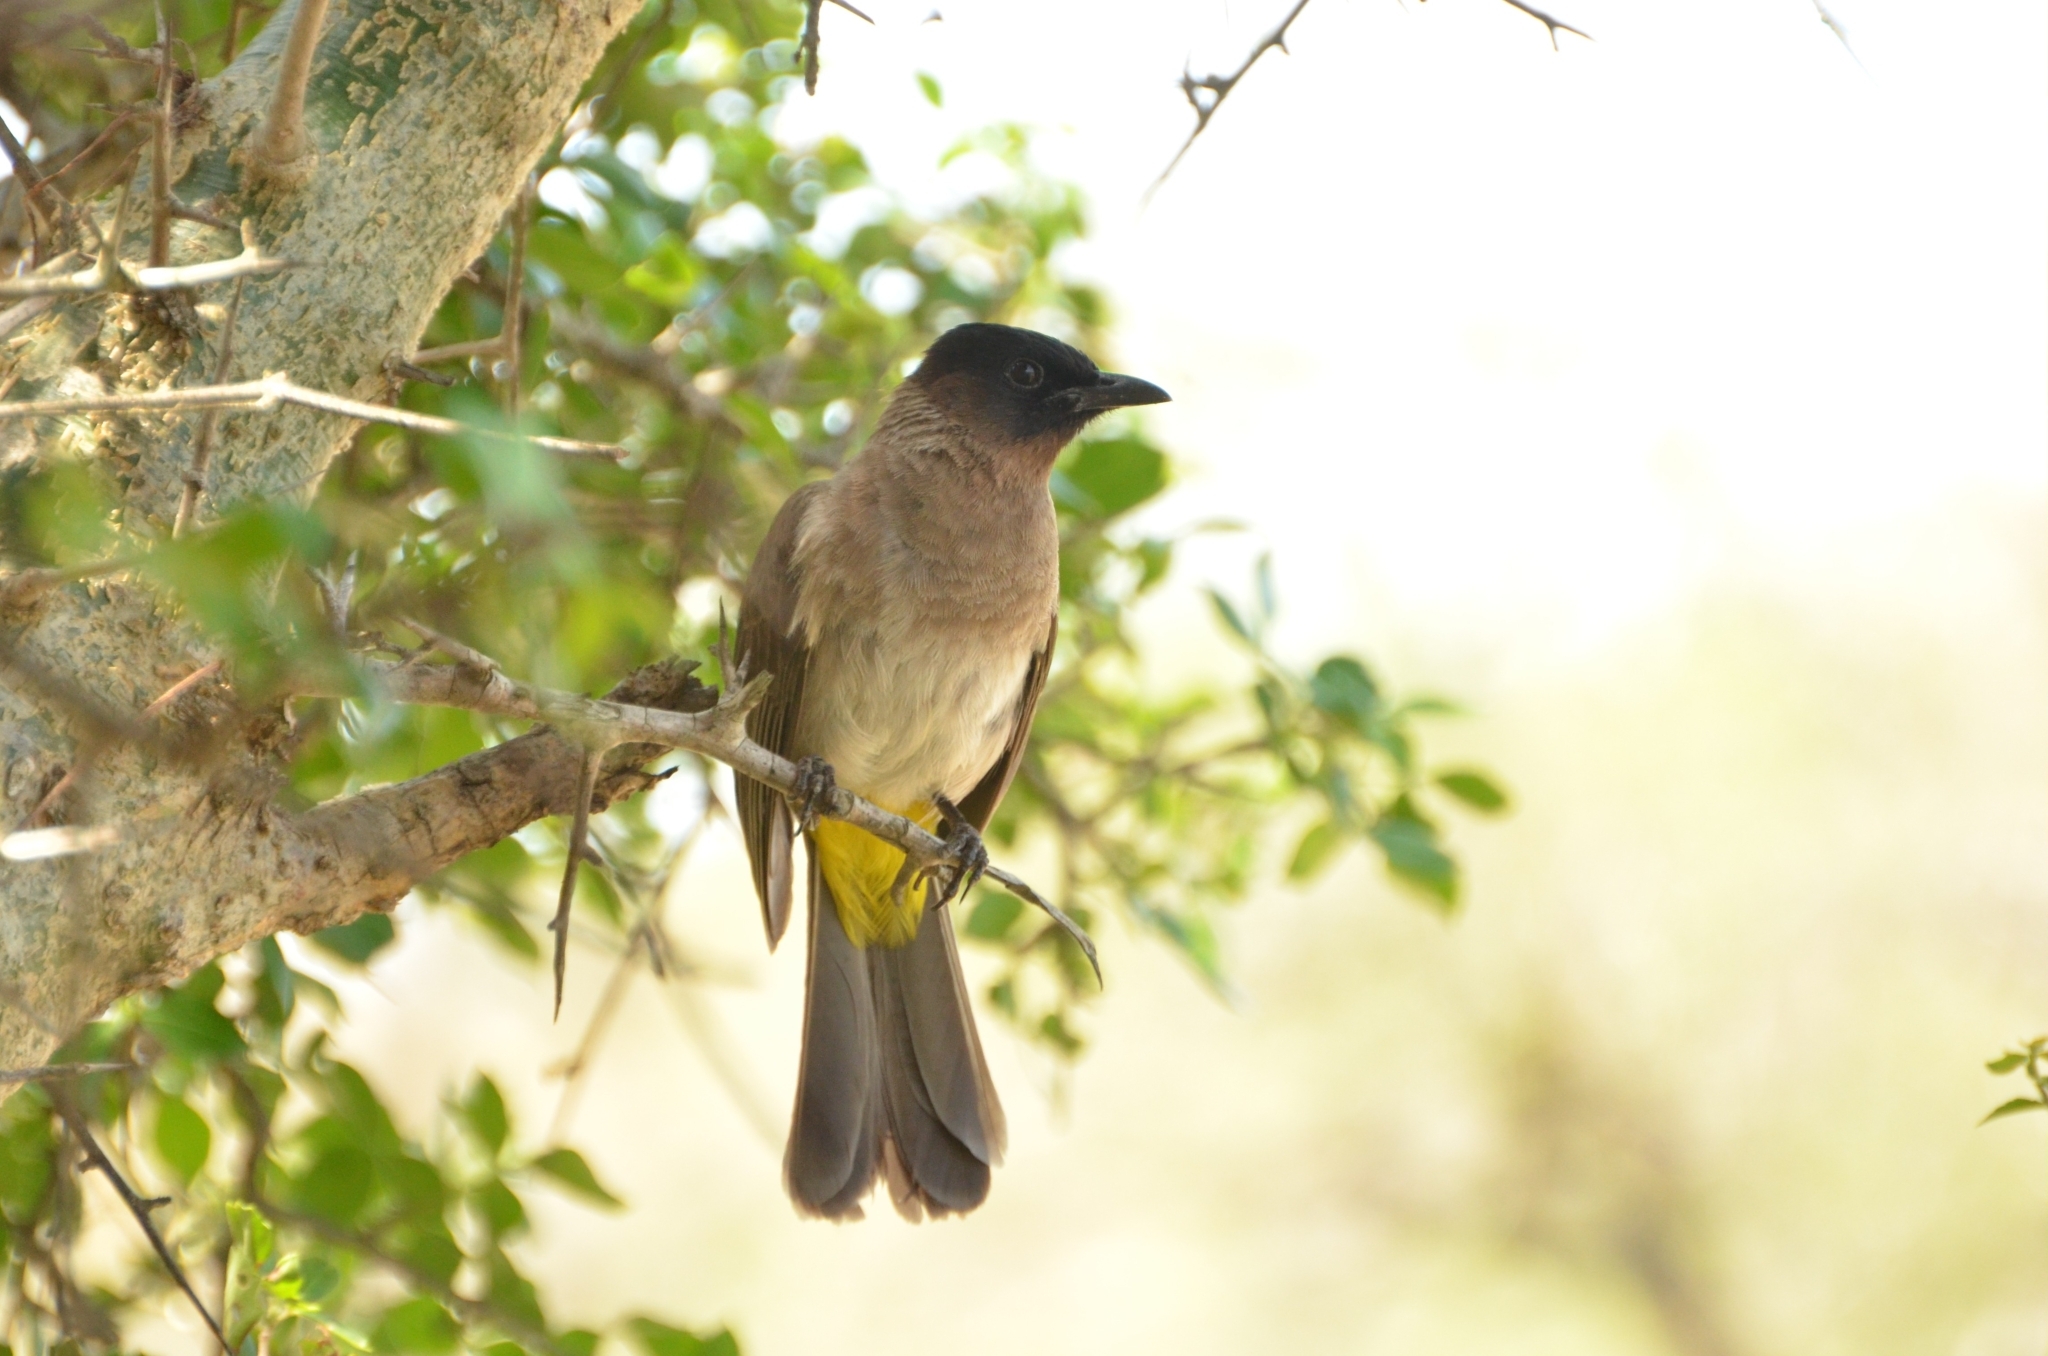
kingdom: Animalia
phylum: Chordata
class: Aves
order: Passeriformes
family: Pycnonotidae
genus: Pycnonotus
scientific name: Pycnonotus barbatus
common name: Common bulbul
